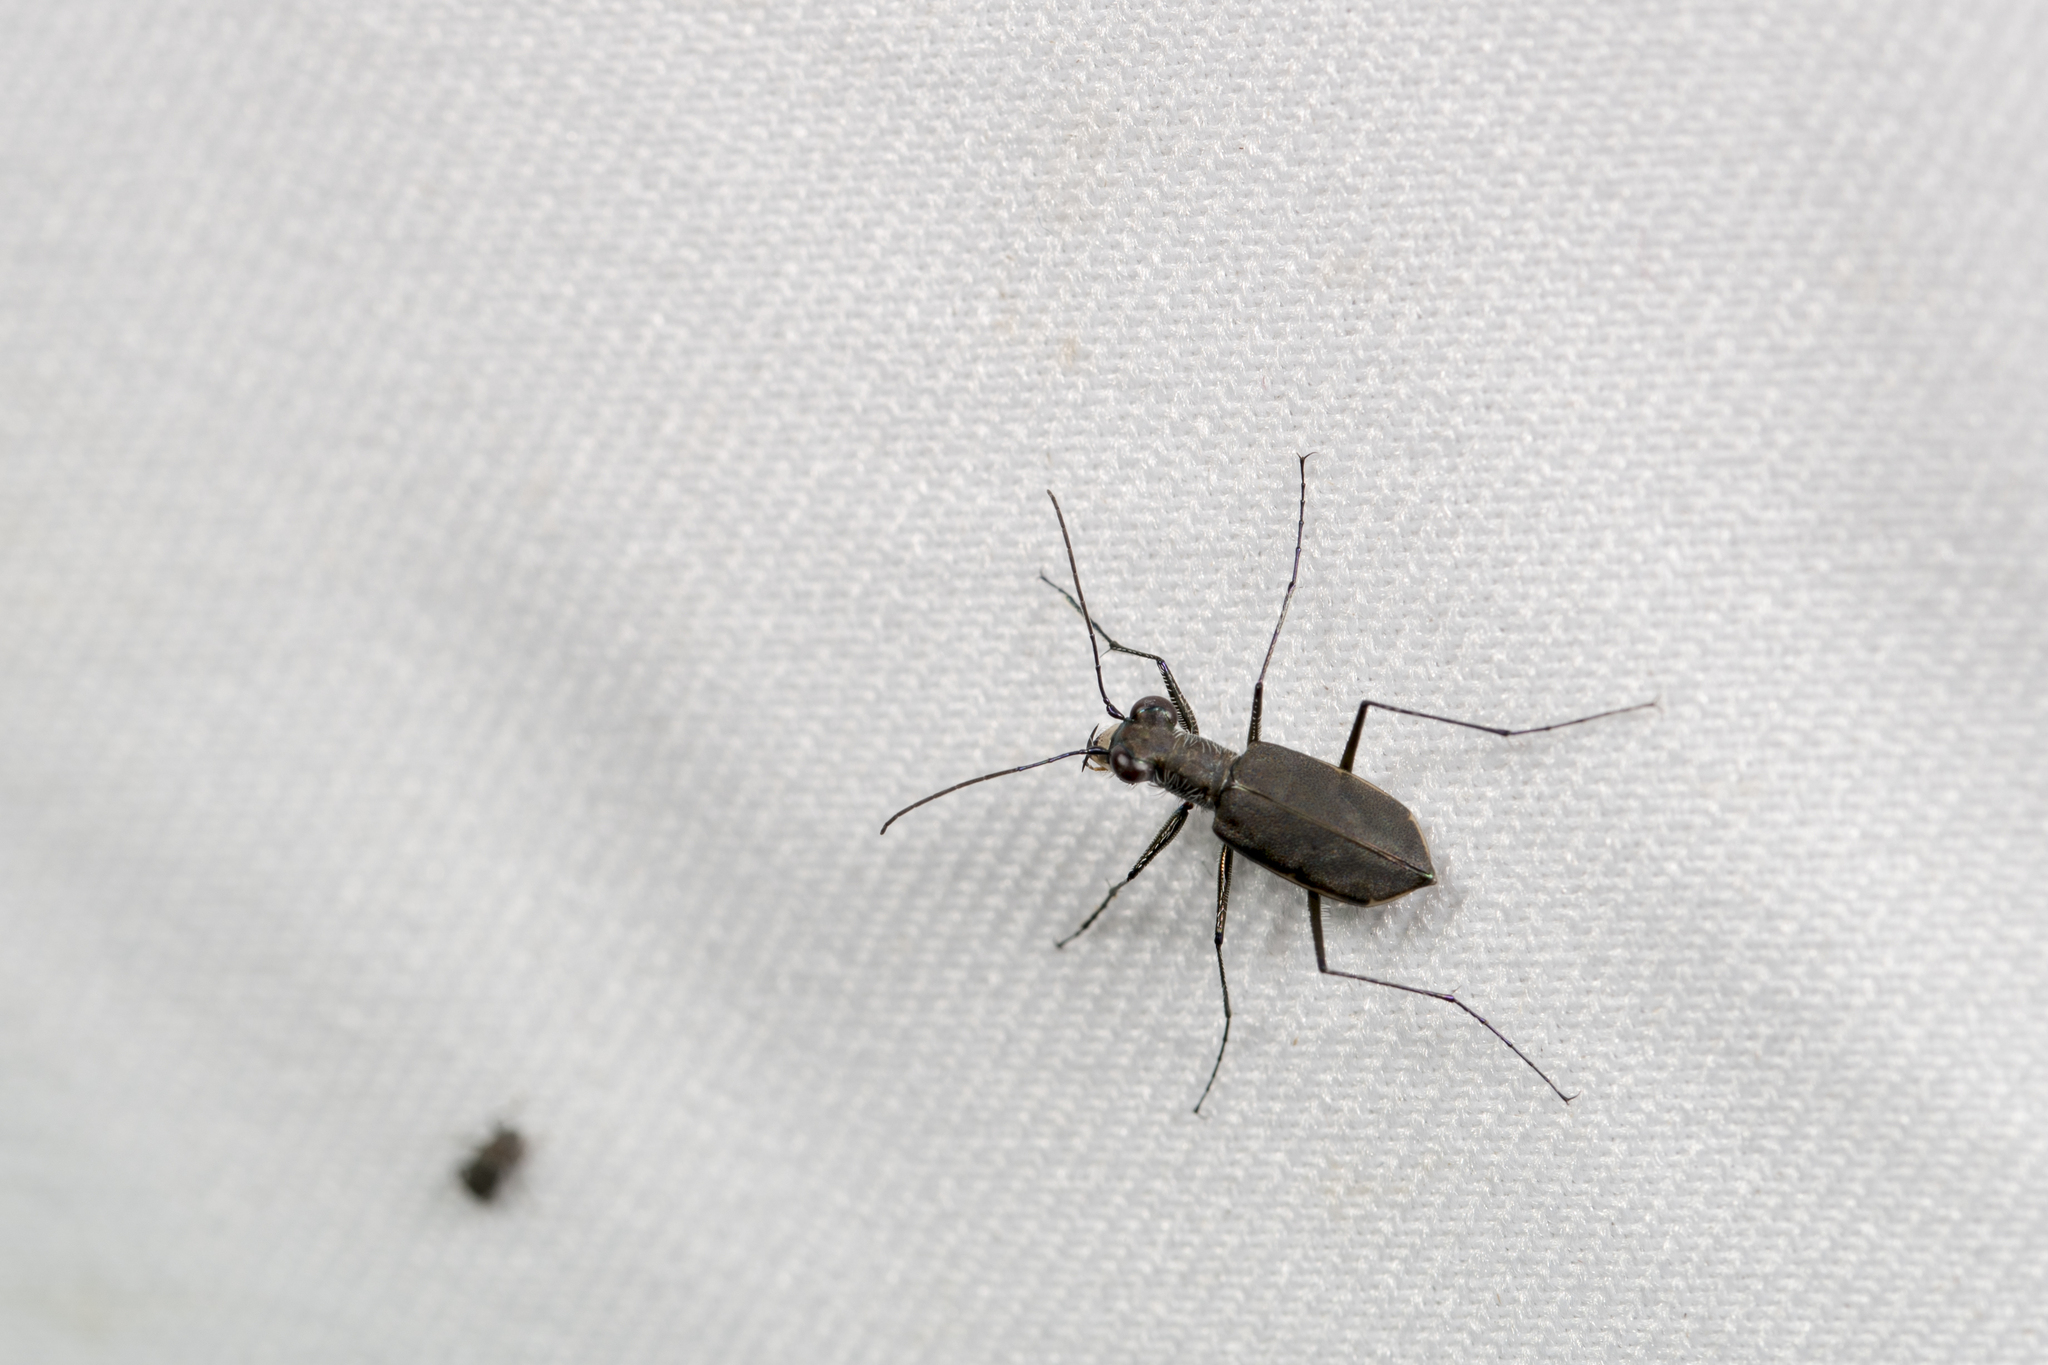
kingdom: Animalia
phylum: Arthropoda
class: Insecta
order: Coleoptera
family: Carabidae
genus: Cylindera
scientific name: Cylindera elisae
